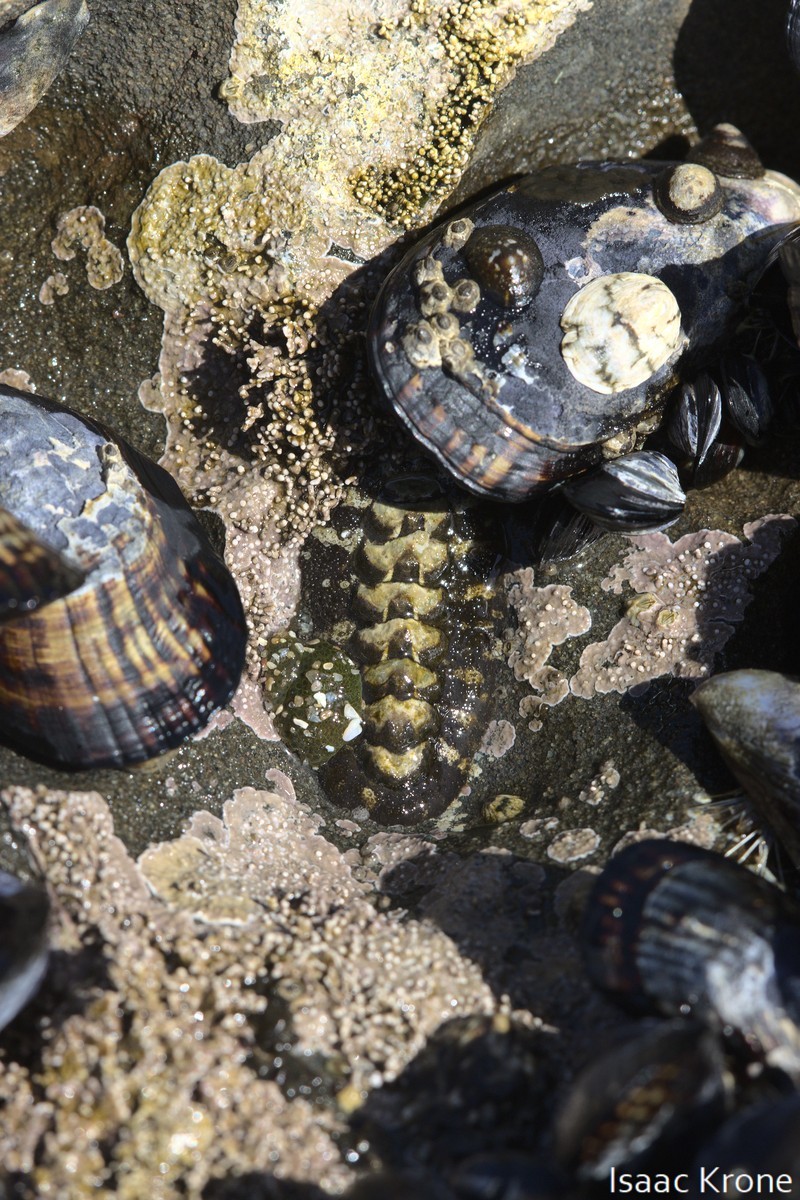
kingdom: Animalia
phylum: Mollusca
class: Polyplacophora
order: Chitonida
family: Tonicellidae
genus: Nuttallina
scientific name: Nuttallina californica
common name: California nuttall chiton
